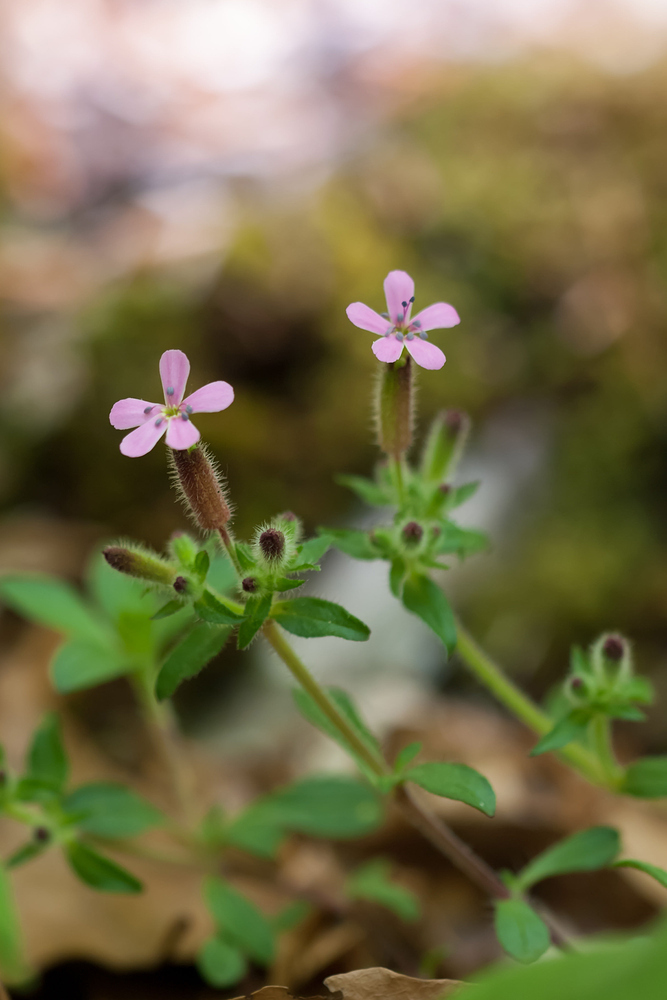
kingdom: Plantae
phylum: Tracheophyta
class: Magnoliopsida
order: Caryophyllales
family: Caryophyllaceae
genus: Saponaria
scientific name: Saponaria ocymoides
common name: Rock soapwort
